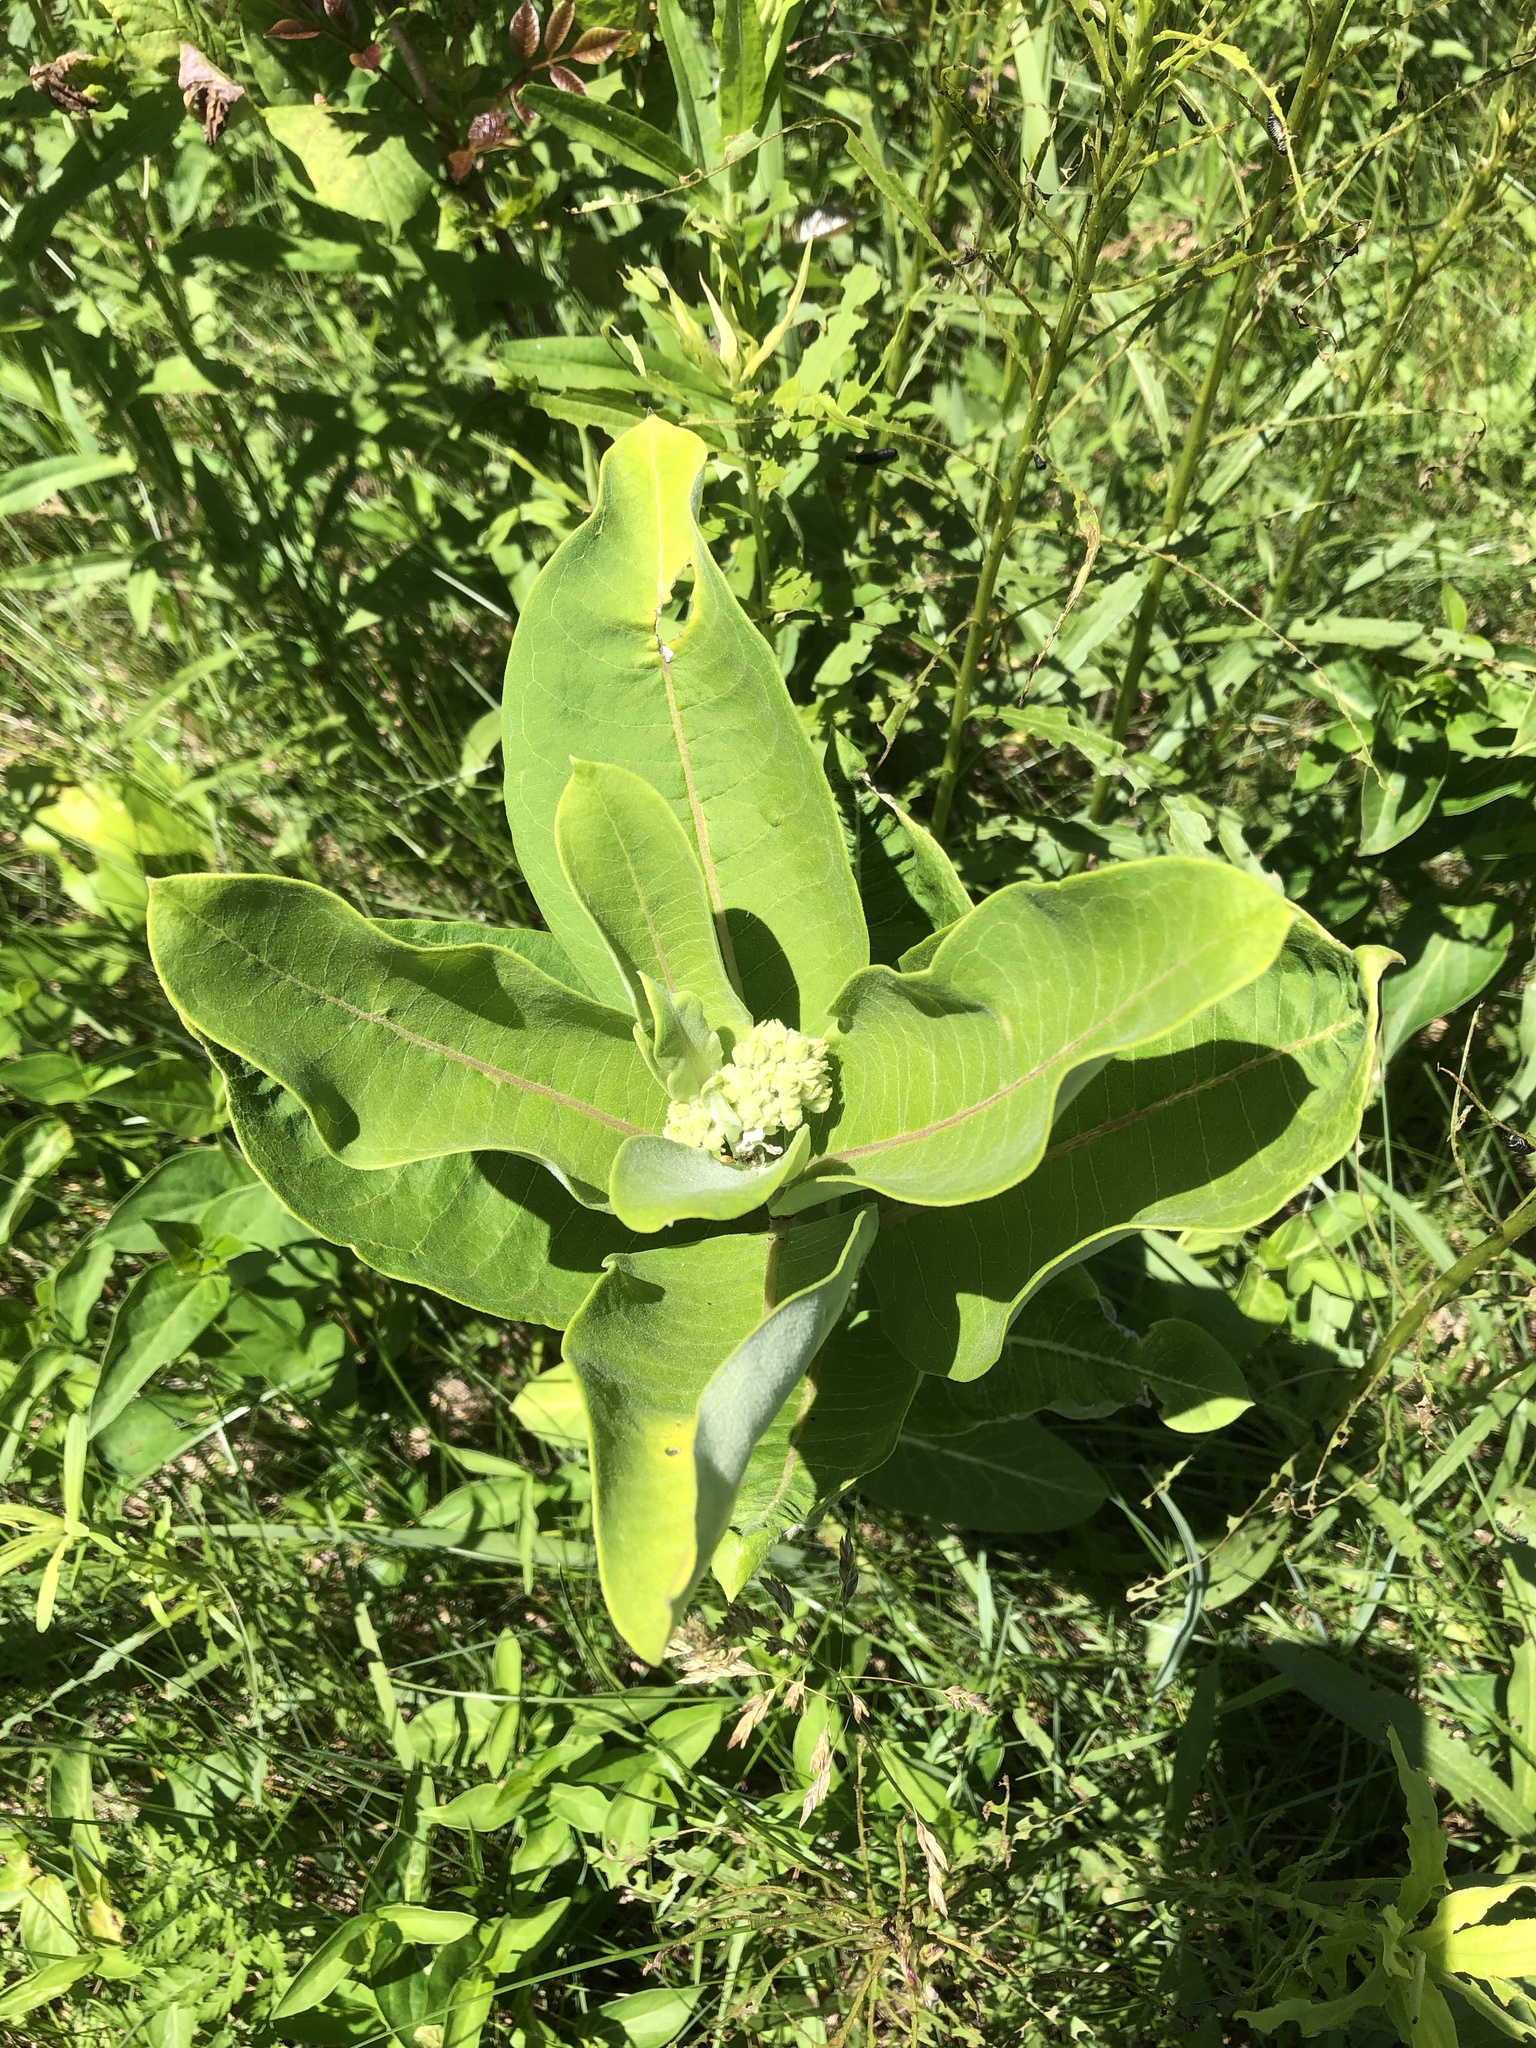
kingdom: Plantae
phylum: Tracheophyta
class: Magnoliopsida
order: Gentianales
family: Apocynaceae
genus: Asclepias
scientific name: Asclepias syriaca
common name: Common milkweed
